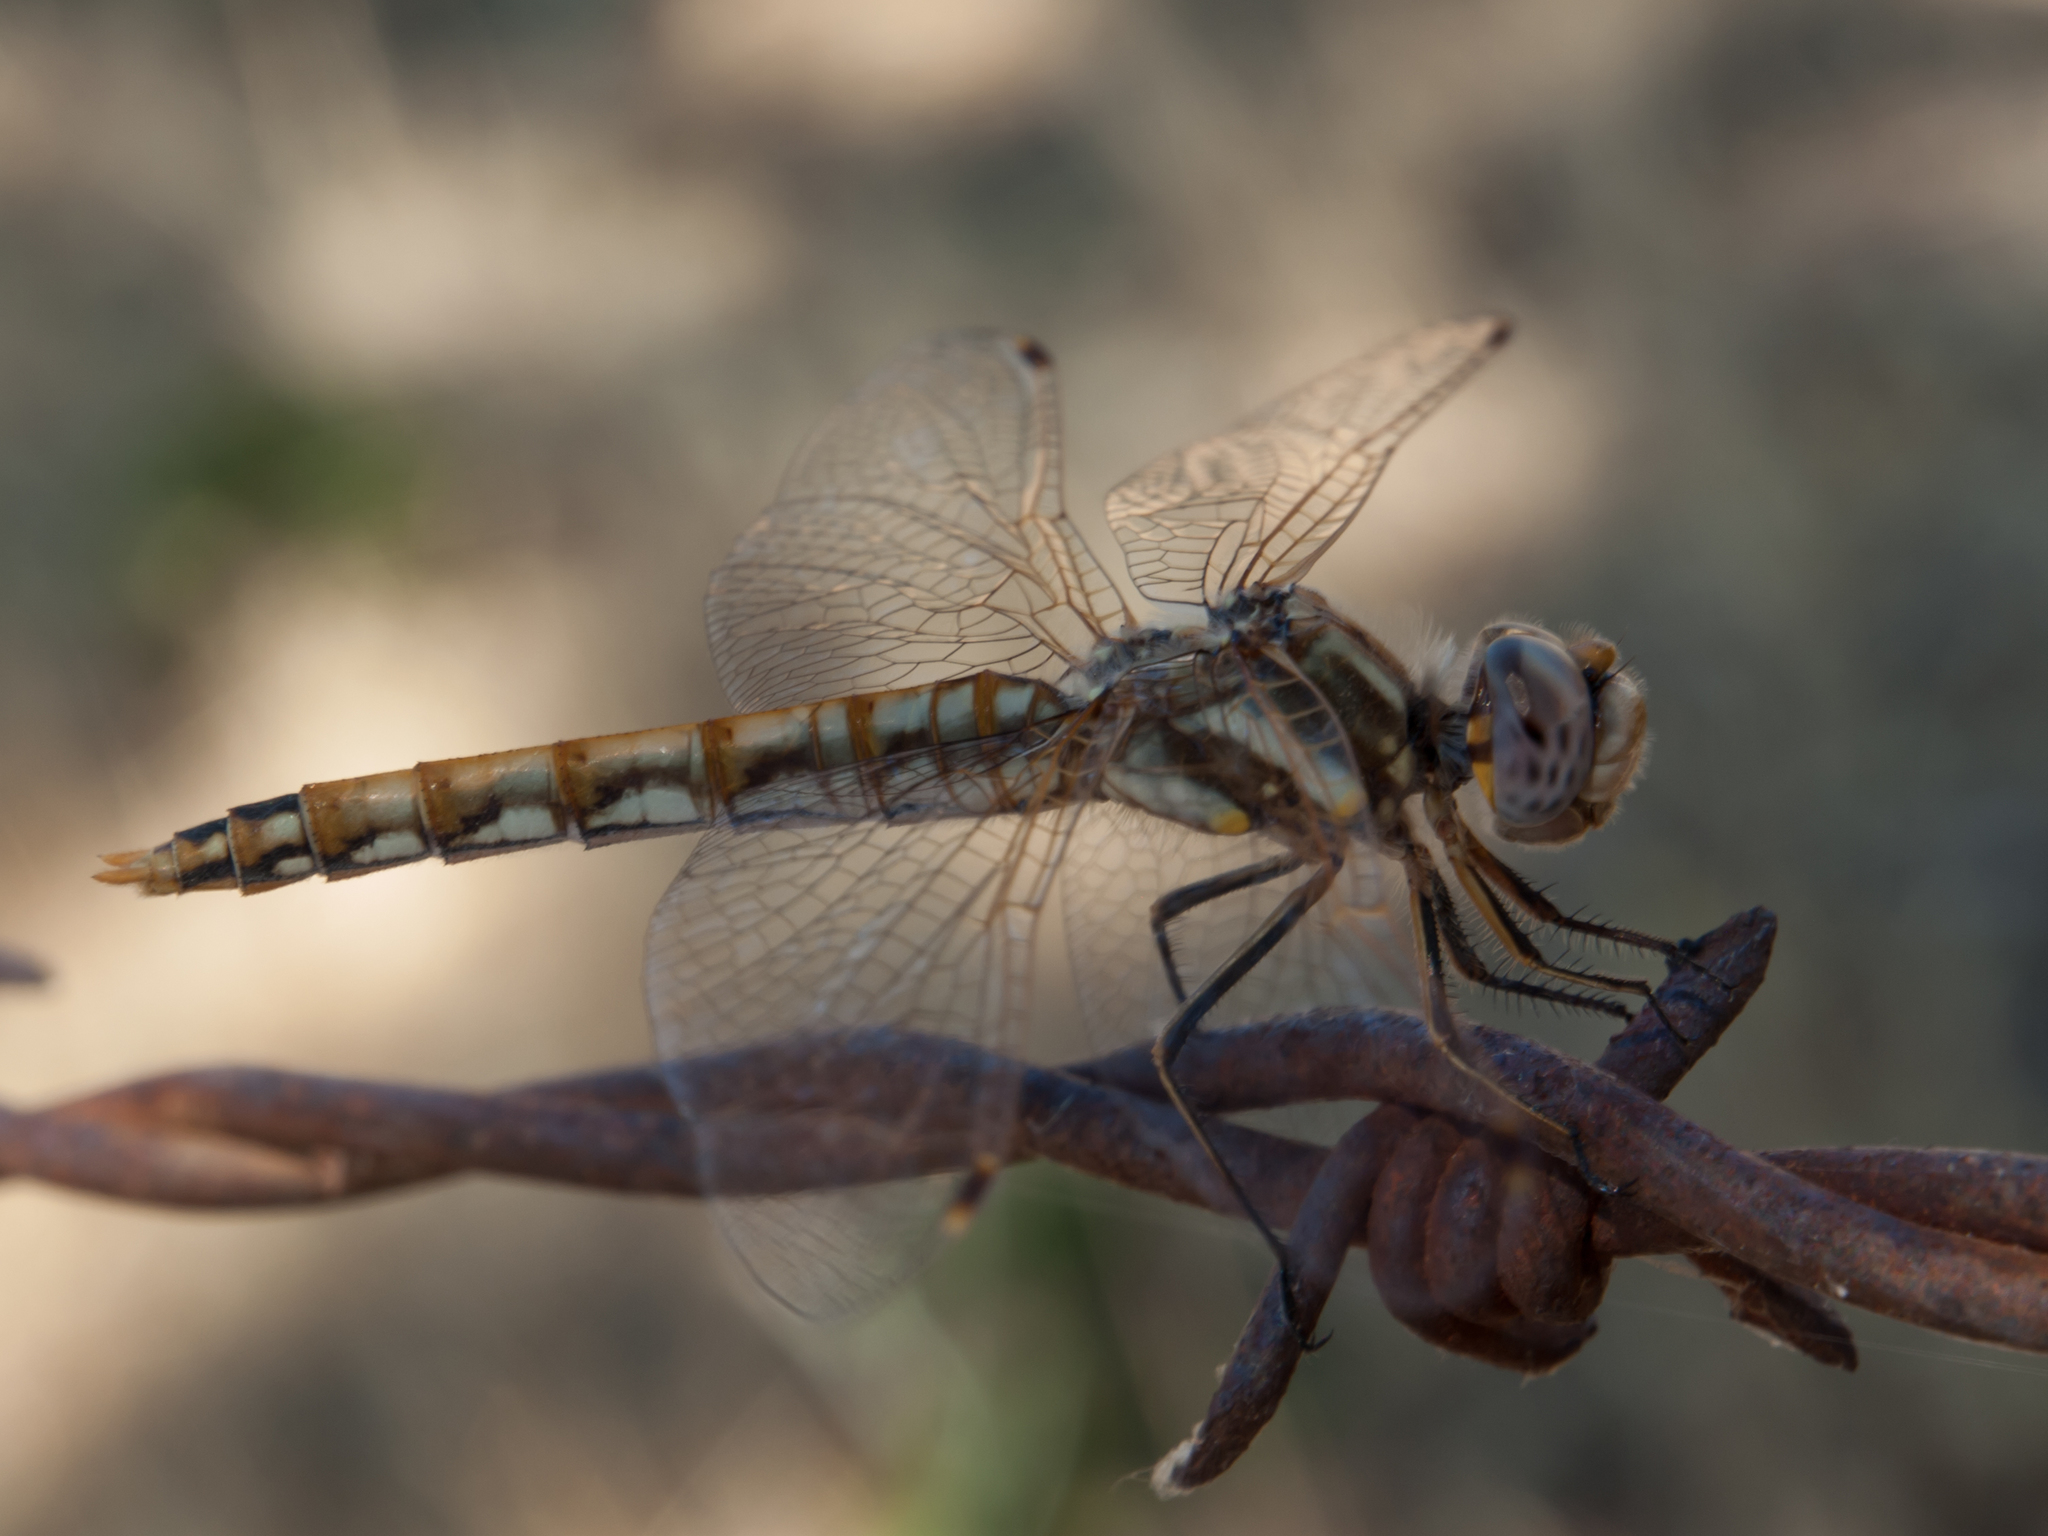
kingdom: Animalia
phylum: Arthropoda
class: Insecta
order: Odonata
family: Libellulidae
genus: Sympetrum
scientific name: Sympetrum corruptum
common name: Variegated meadowhawk
